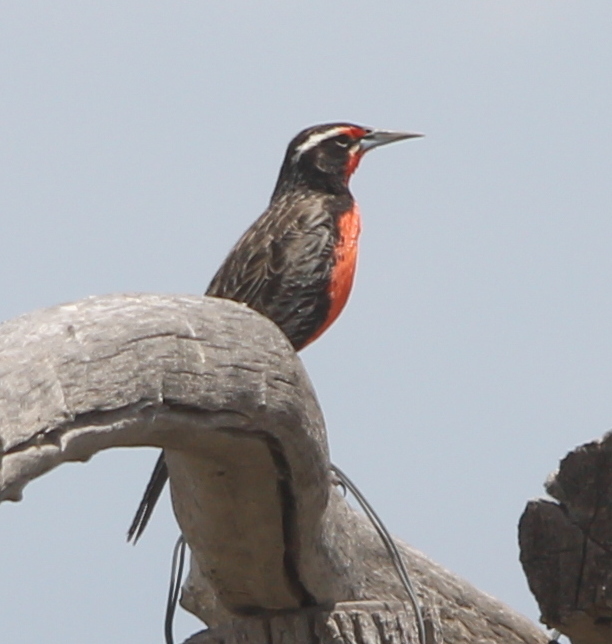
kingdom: Animalia
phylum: Chordata
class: Aves
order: Passeriformes
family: Icteridae
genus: Sturnella
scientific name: Sturnella loyca
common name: Long-tailed meadowlark
